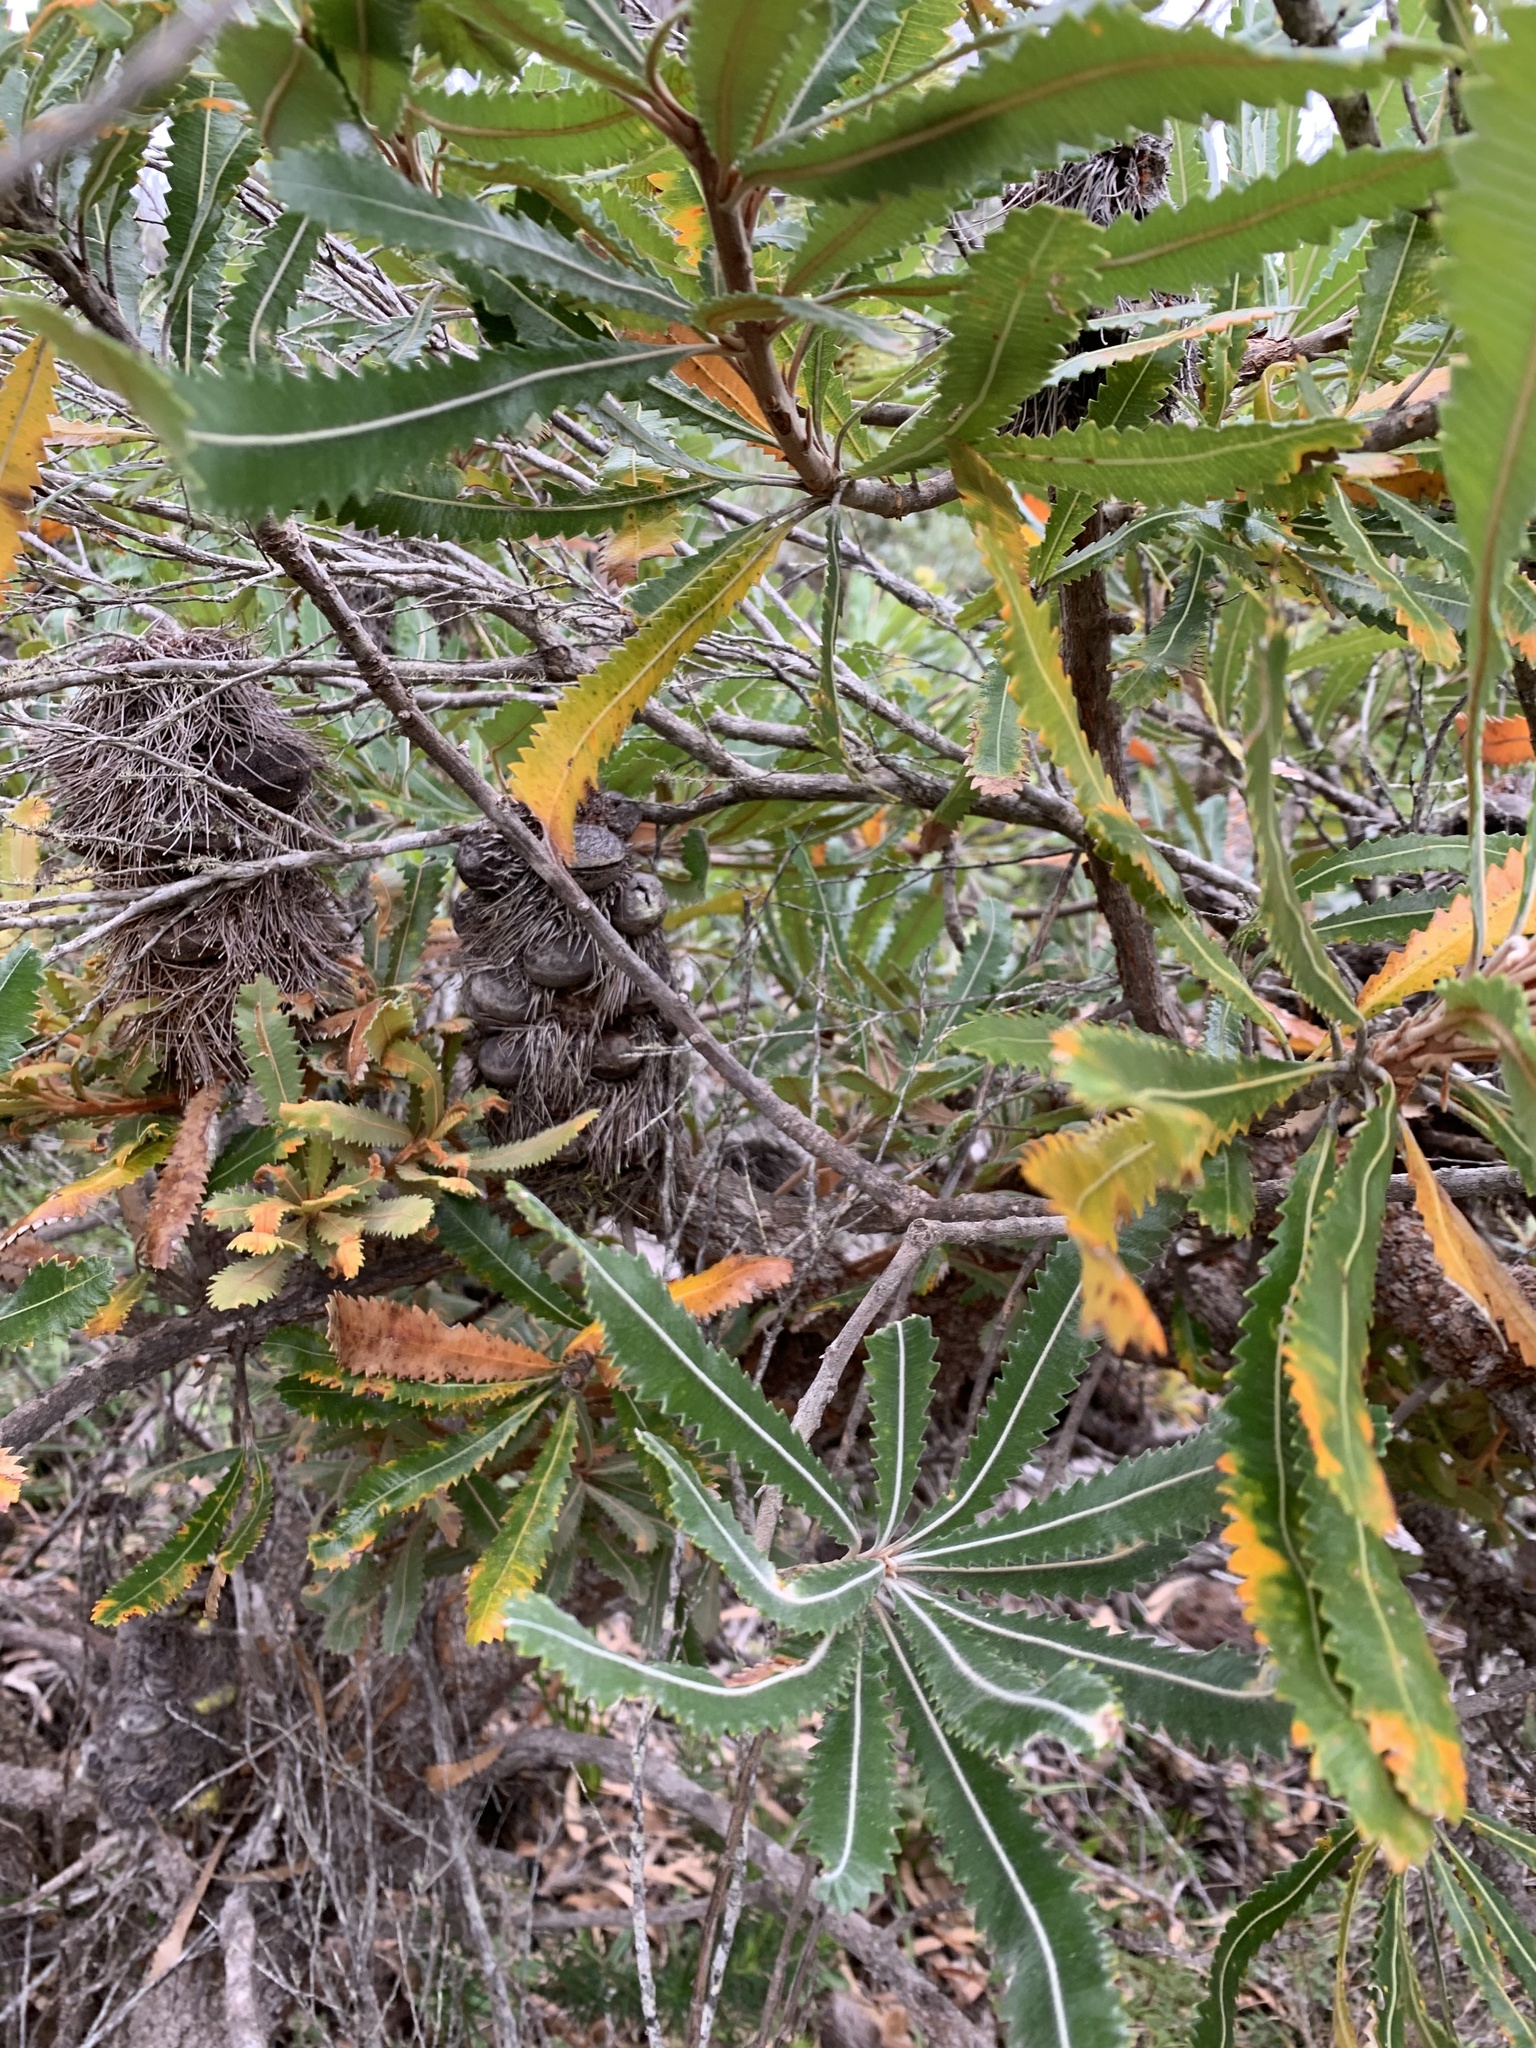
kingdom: Plantae
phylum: Tracheophyta
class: Magnoliopsida
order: Proteales
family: Proteaceae
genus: Banksia
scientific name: Banksia aemula
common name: Wallum banksia
